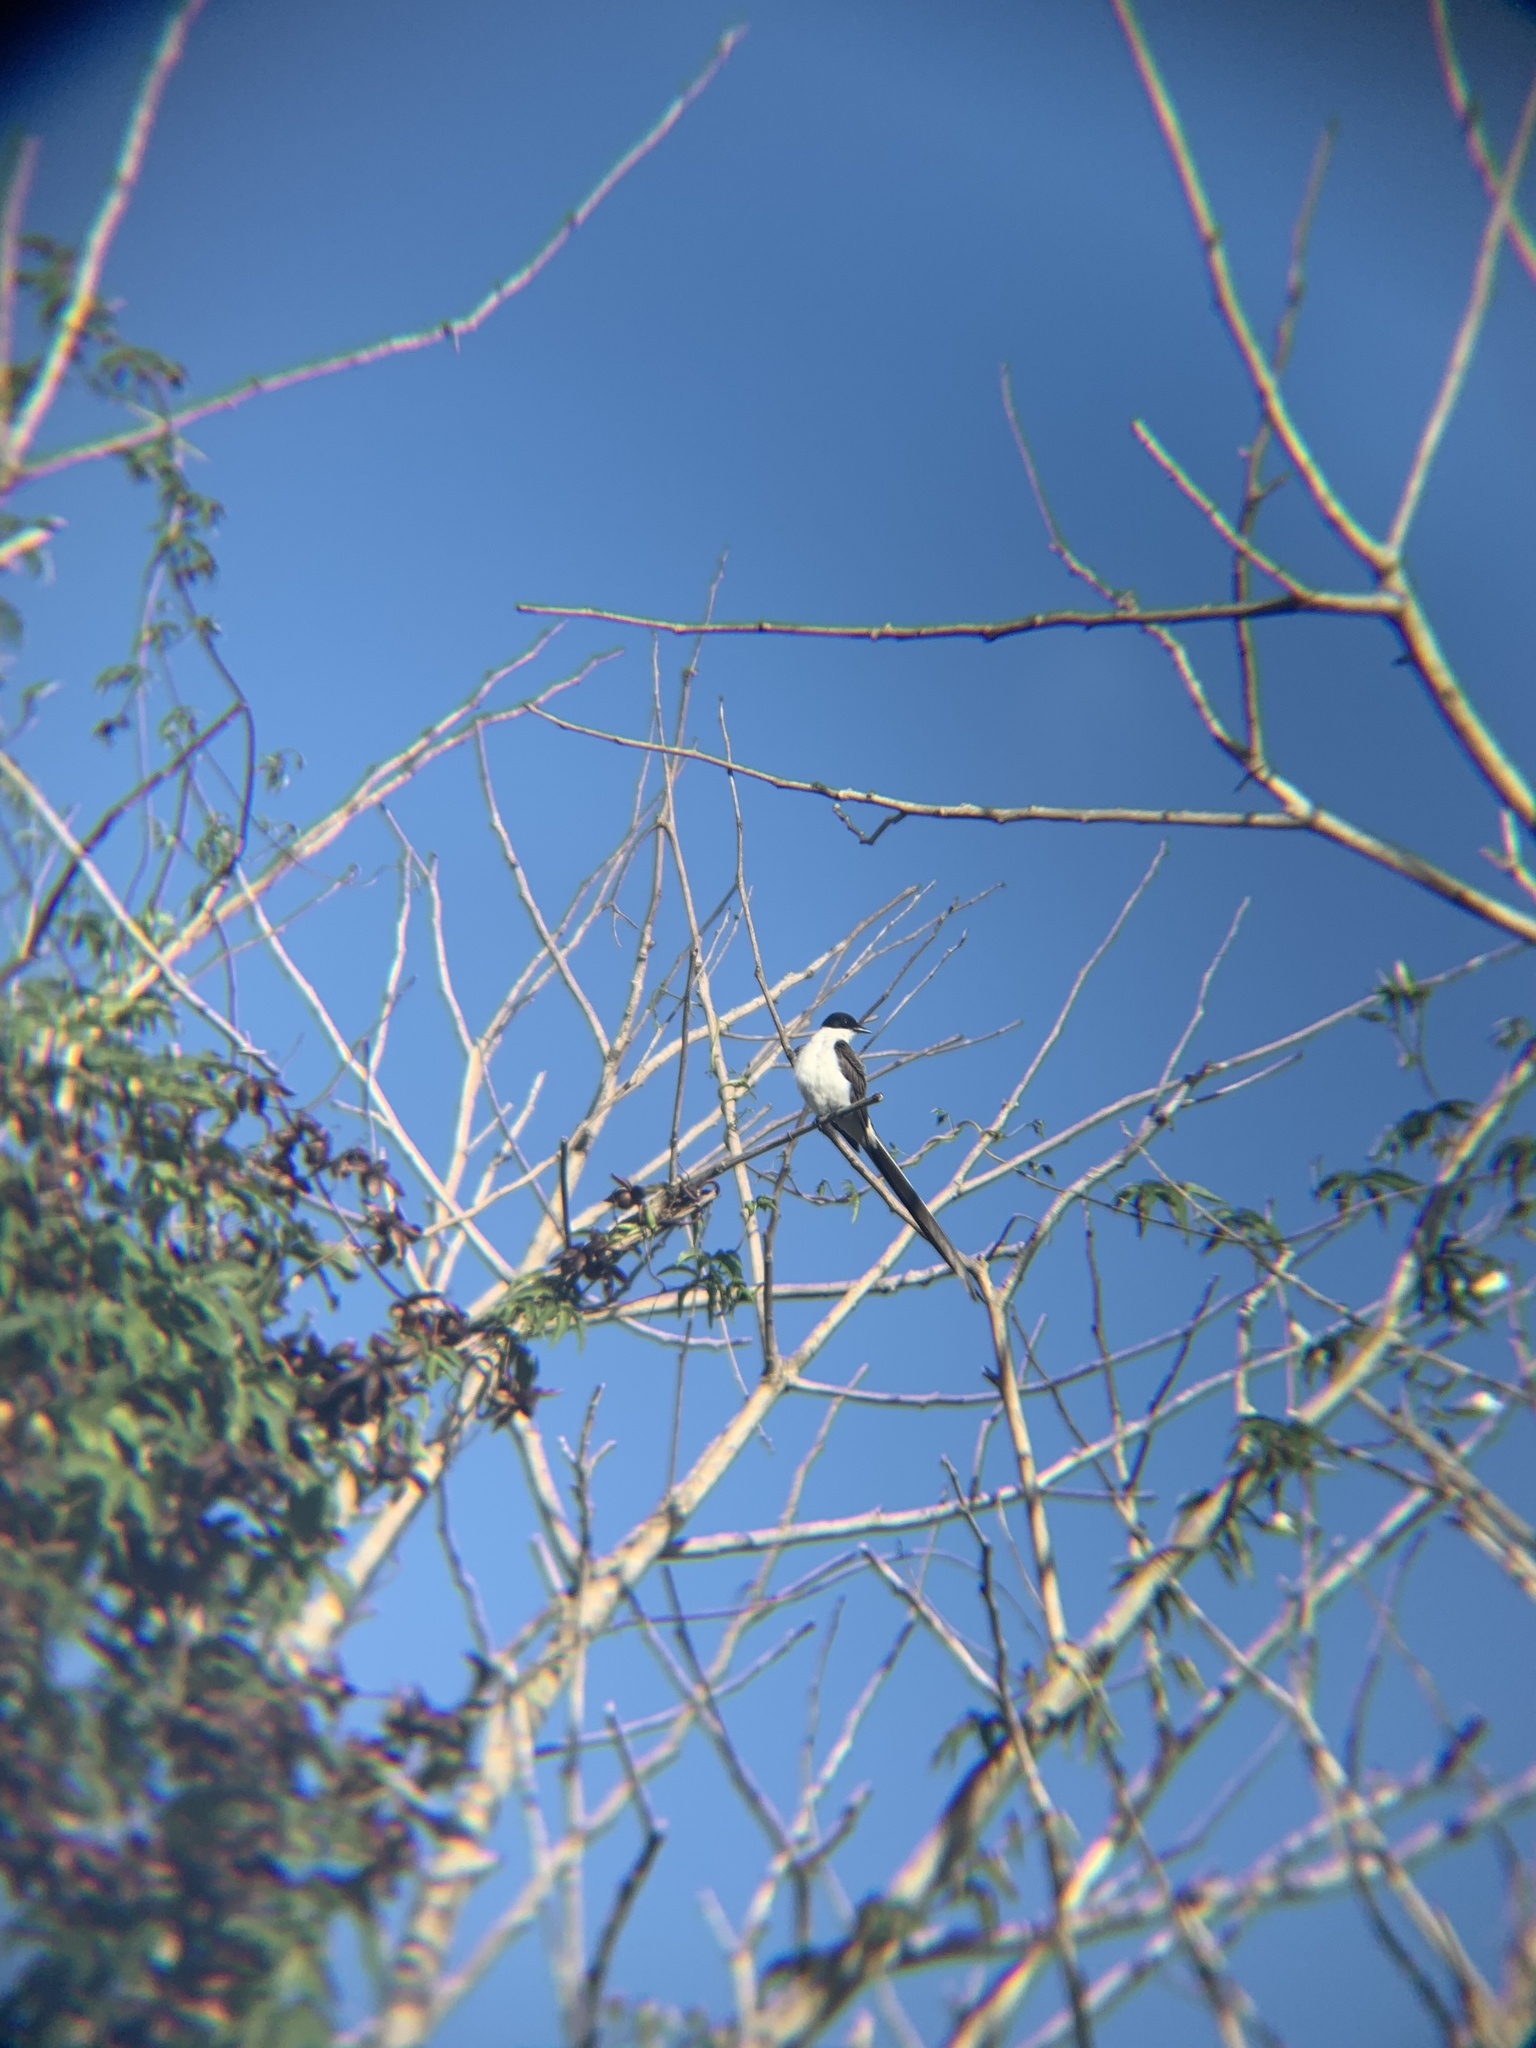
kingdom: Animalia
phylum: Chordata
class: Aves
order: Passeriformes
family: Tyrannidae
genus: Tyrannus
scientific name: Tyrannus savana
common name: Fork-tailed flycatcher
